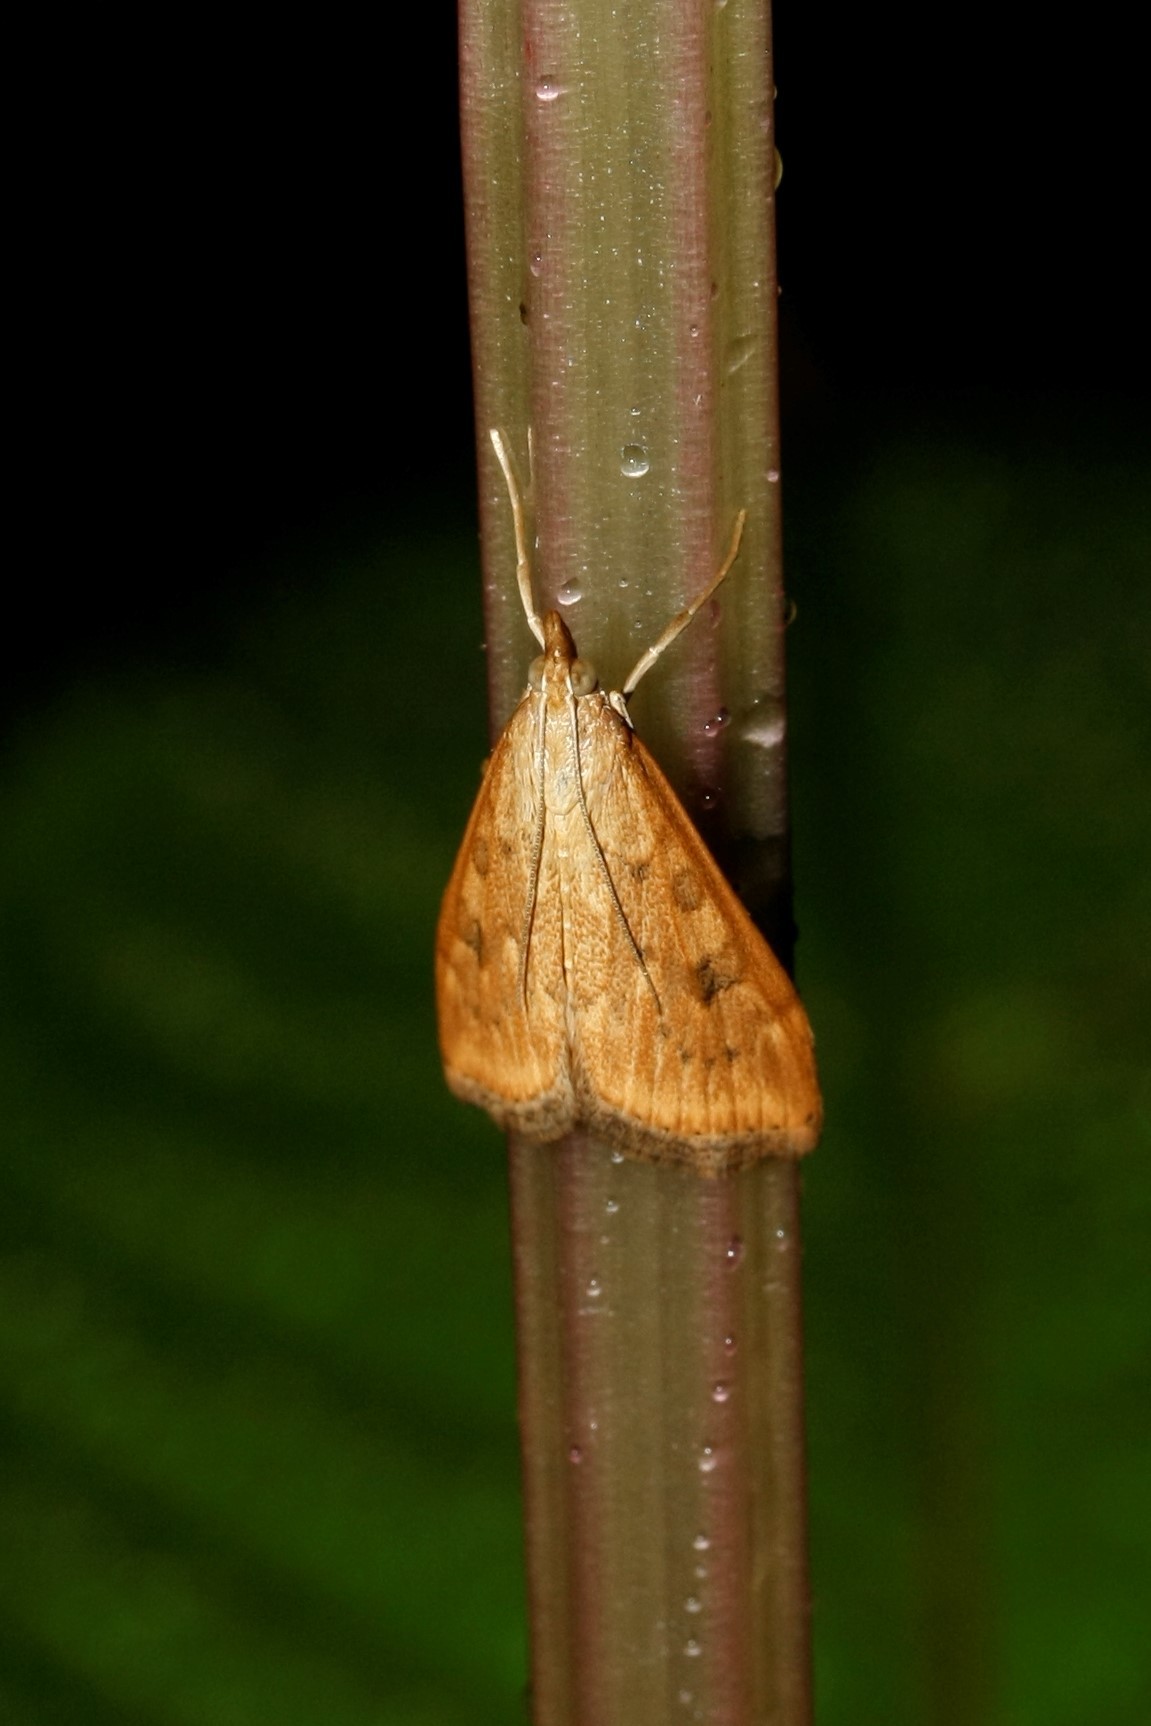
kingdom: Animalia
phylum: Arthropoda
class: Insecta
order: Lepidoptera
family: Crambidae
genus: Udea
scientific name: Udea ferrugalis
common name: Rusty dot
